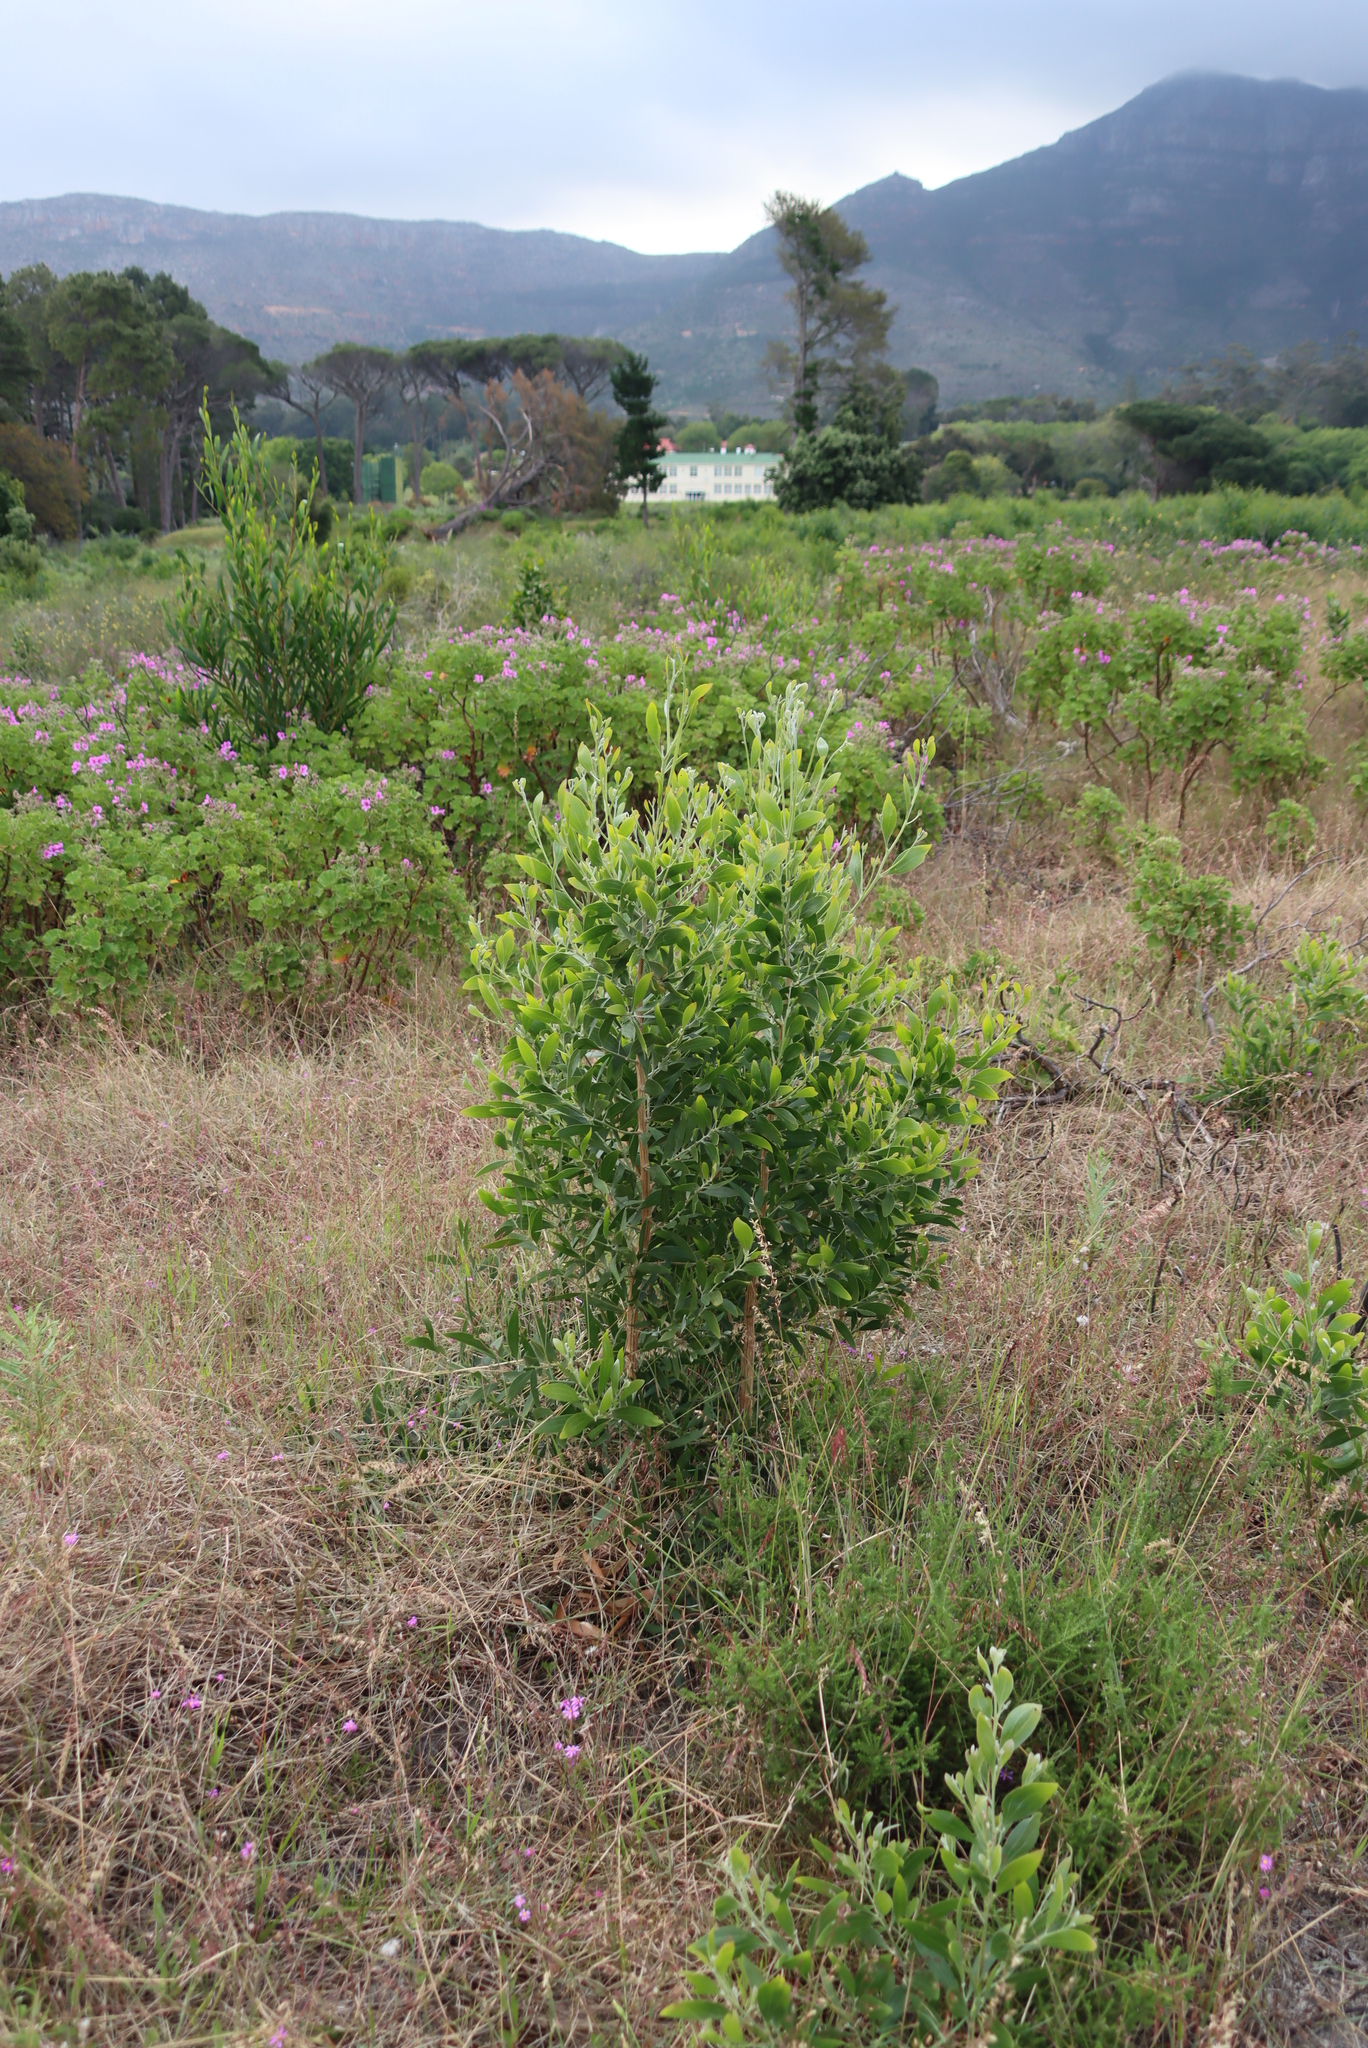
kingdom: Plantae
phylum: Tracheophyta
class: Magnoliopsida
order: Fabales
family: Fabaceae
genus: Acacia
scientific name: Acacia melanoxylon
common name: Blackwood
